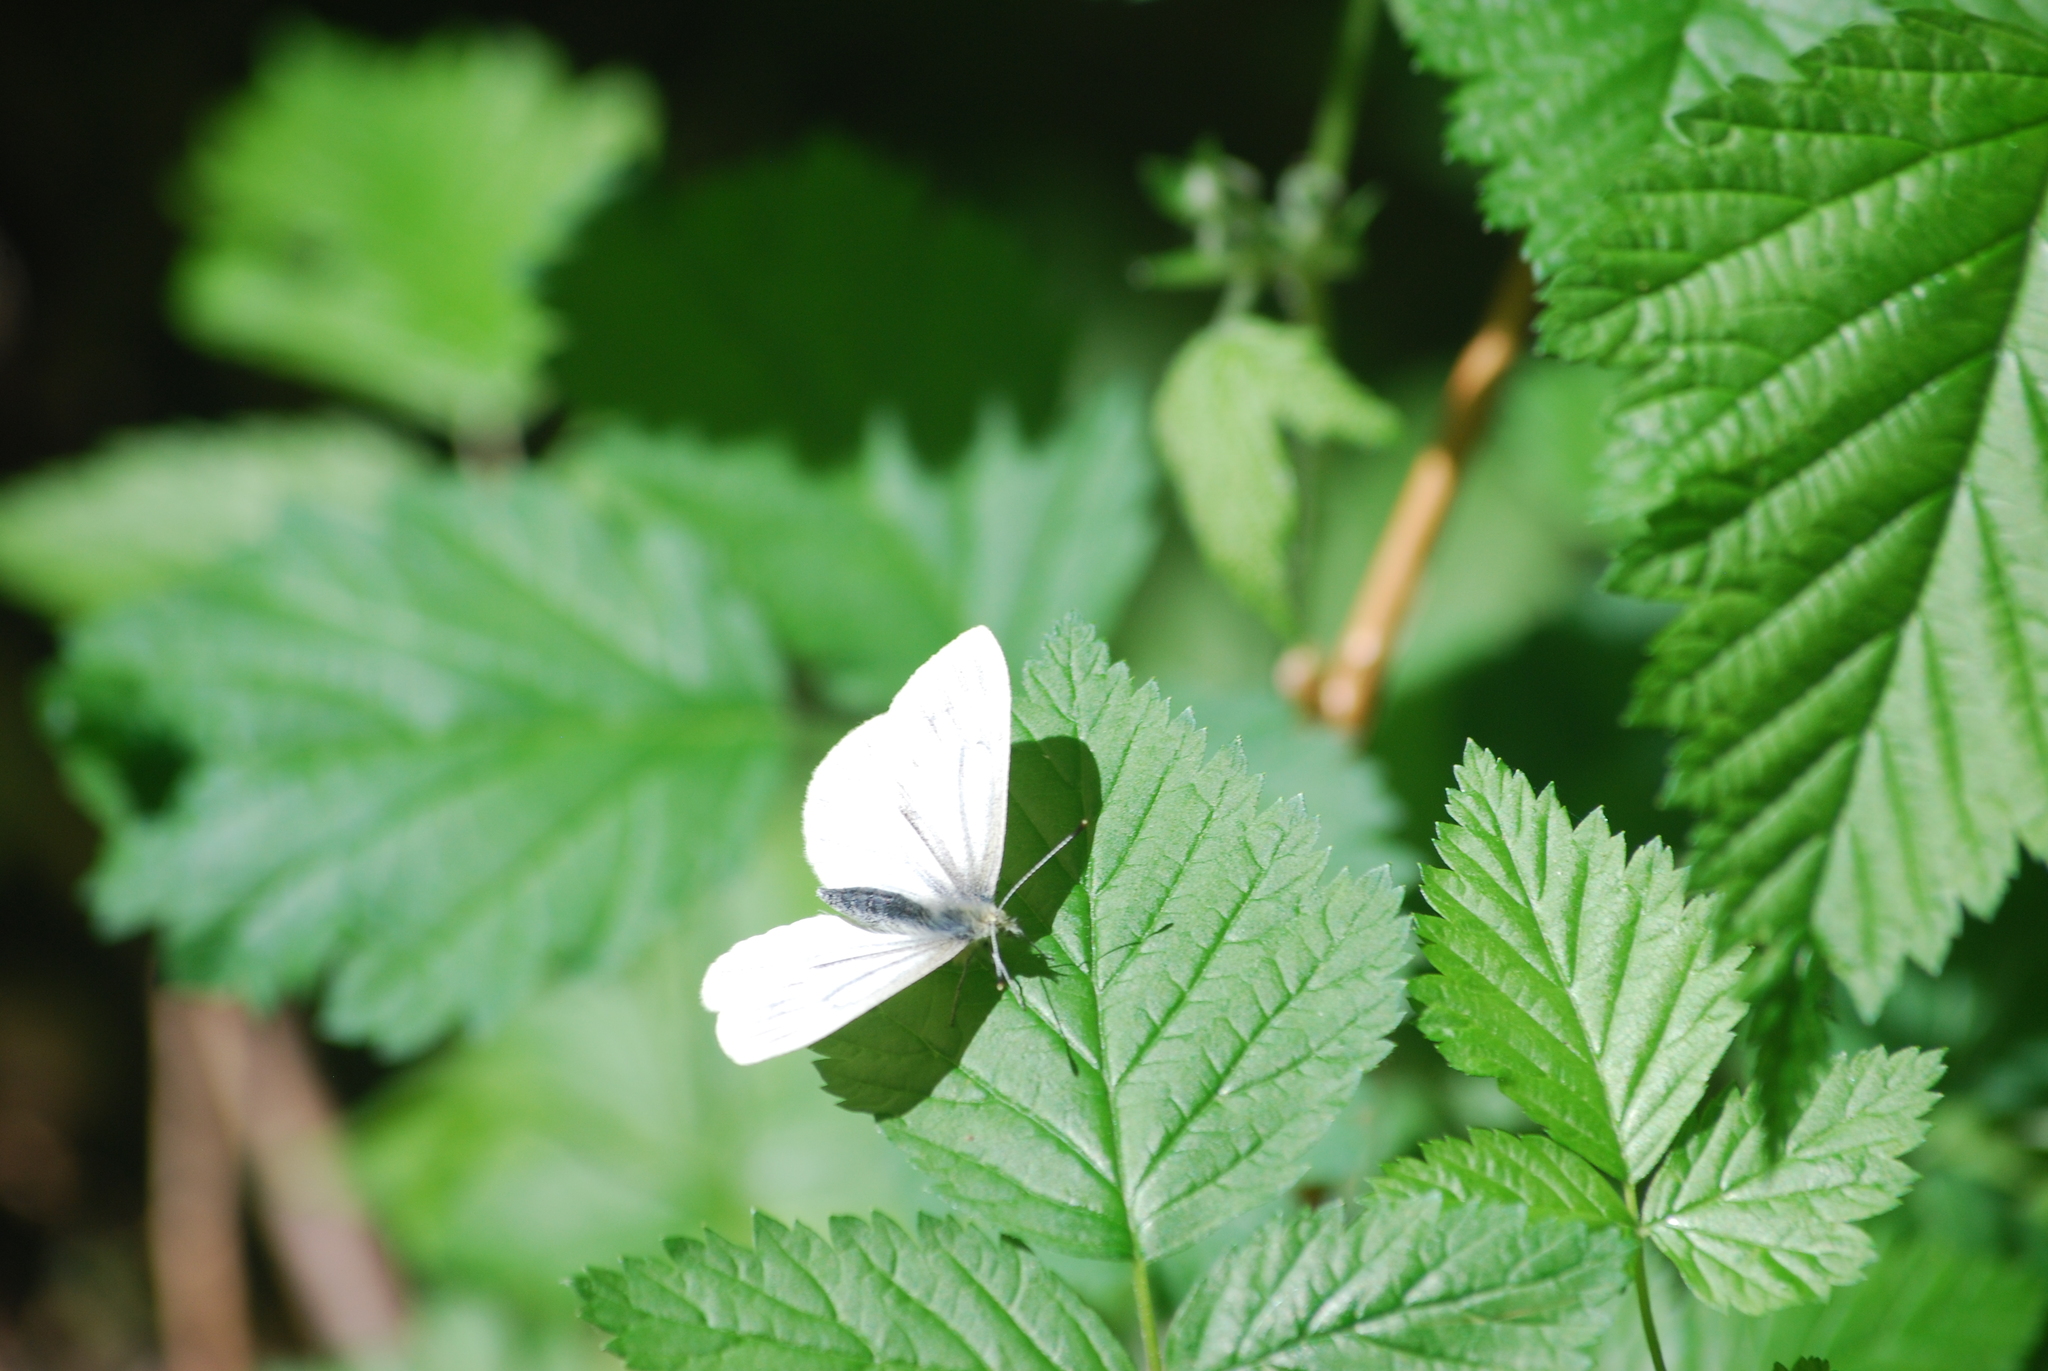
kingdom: Animalia
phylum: Arthropoda
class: Insecta
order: Lepidoptera
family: Pieridae
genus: Pieris
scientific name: Pieris marginalis
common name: Margined white
